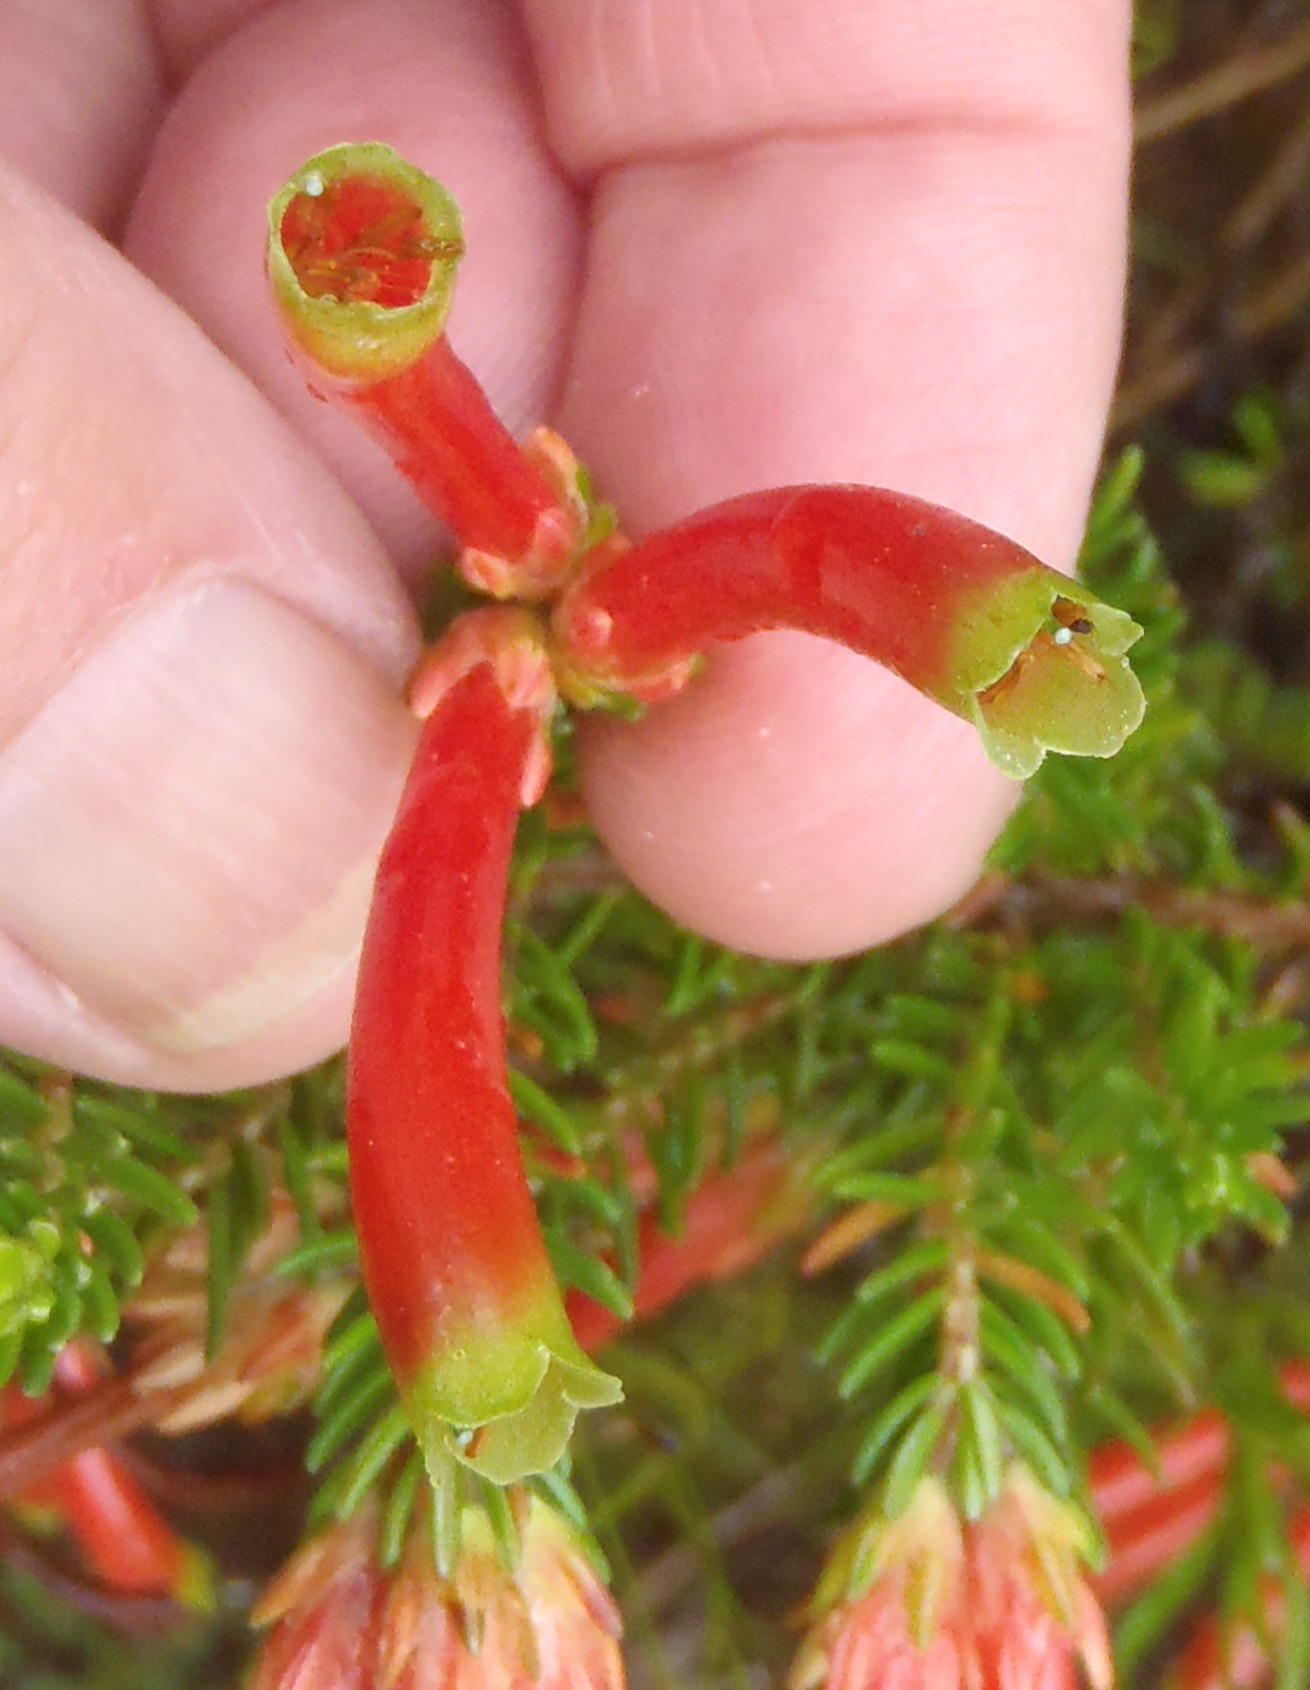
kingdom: Plantae
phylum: Tracheophyta
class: Magnoliopsida
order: Ericales
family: Ericaceae
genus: Erica
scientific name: Erica discolor
